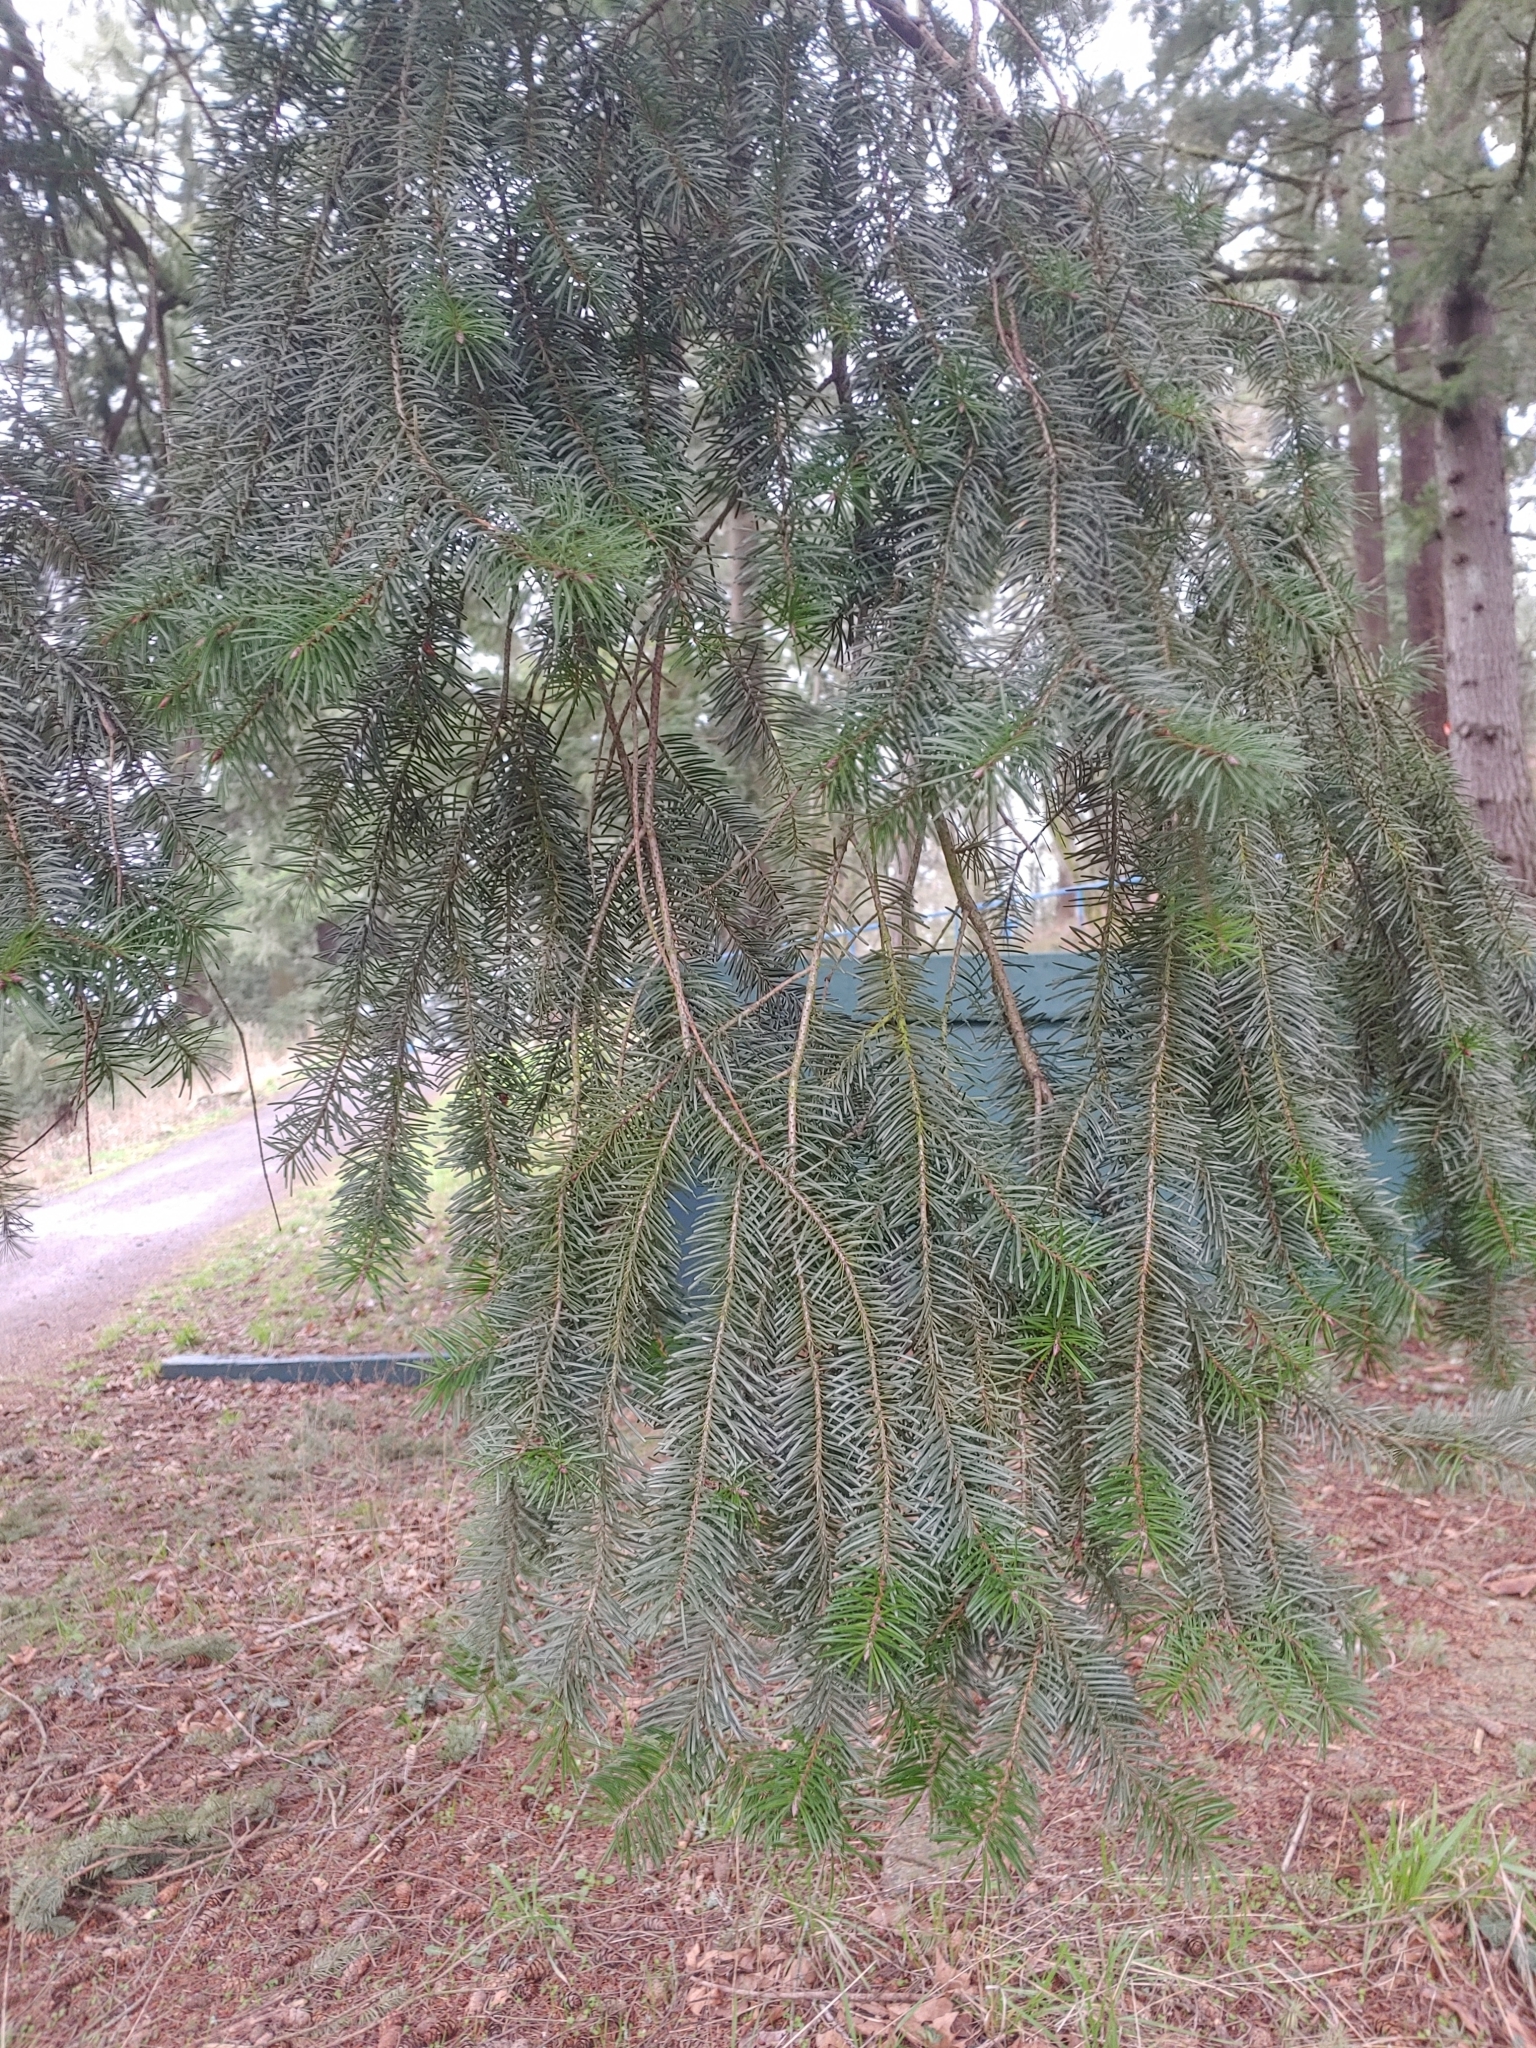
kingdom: Plantae
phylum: Tracheophyta
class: Pinopsida
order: Pinales
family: Pinaceae
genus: Pseudotsuga
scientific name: Pseudotsuga menziesii
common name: Douglas fir
